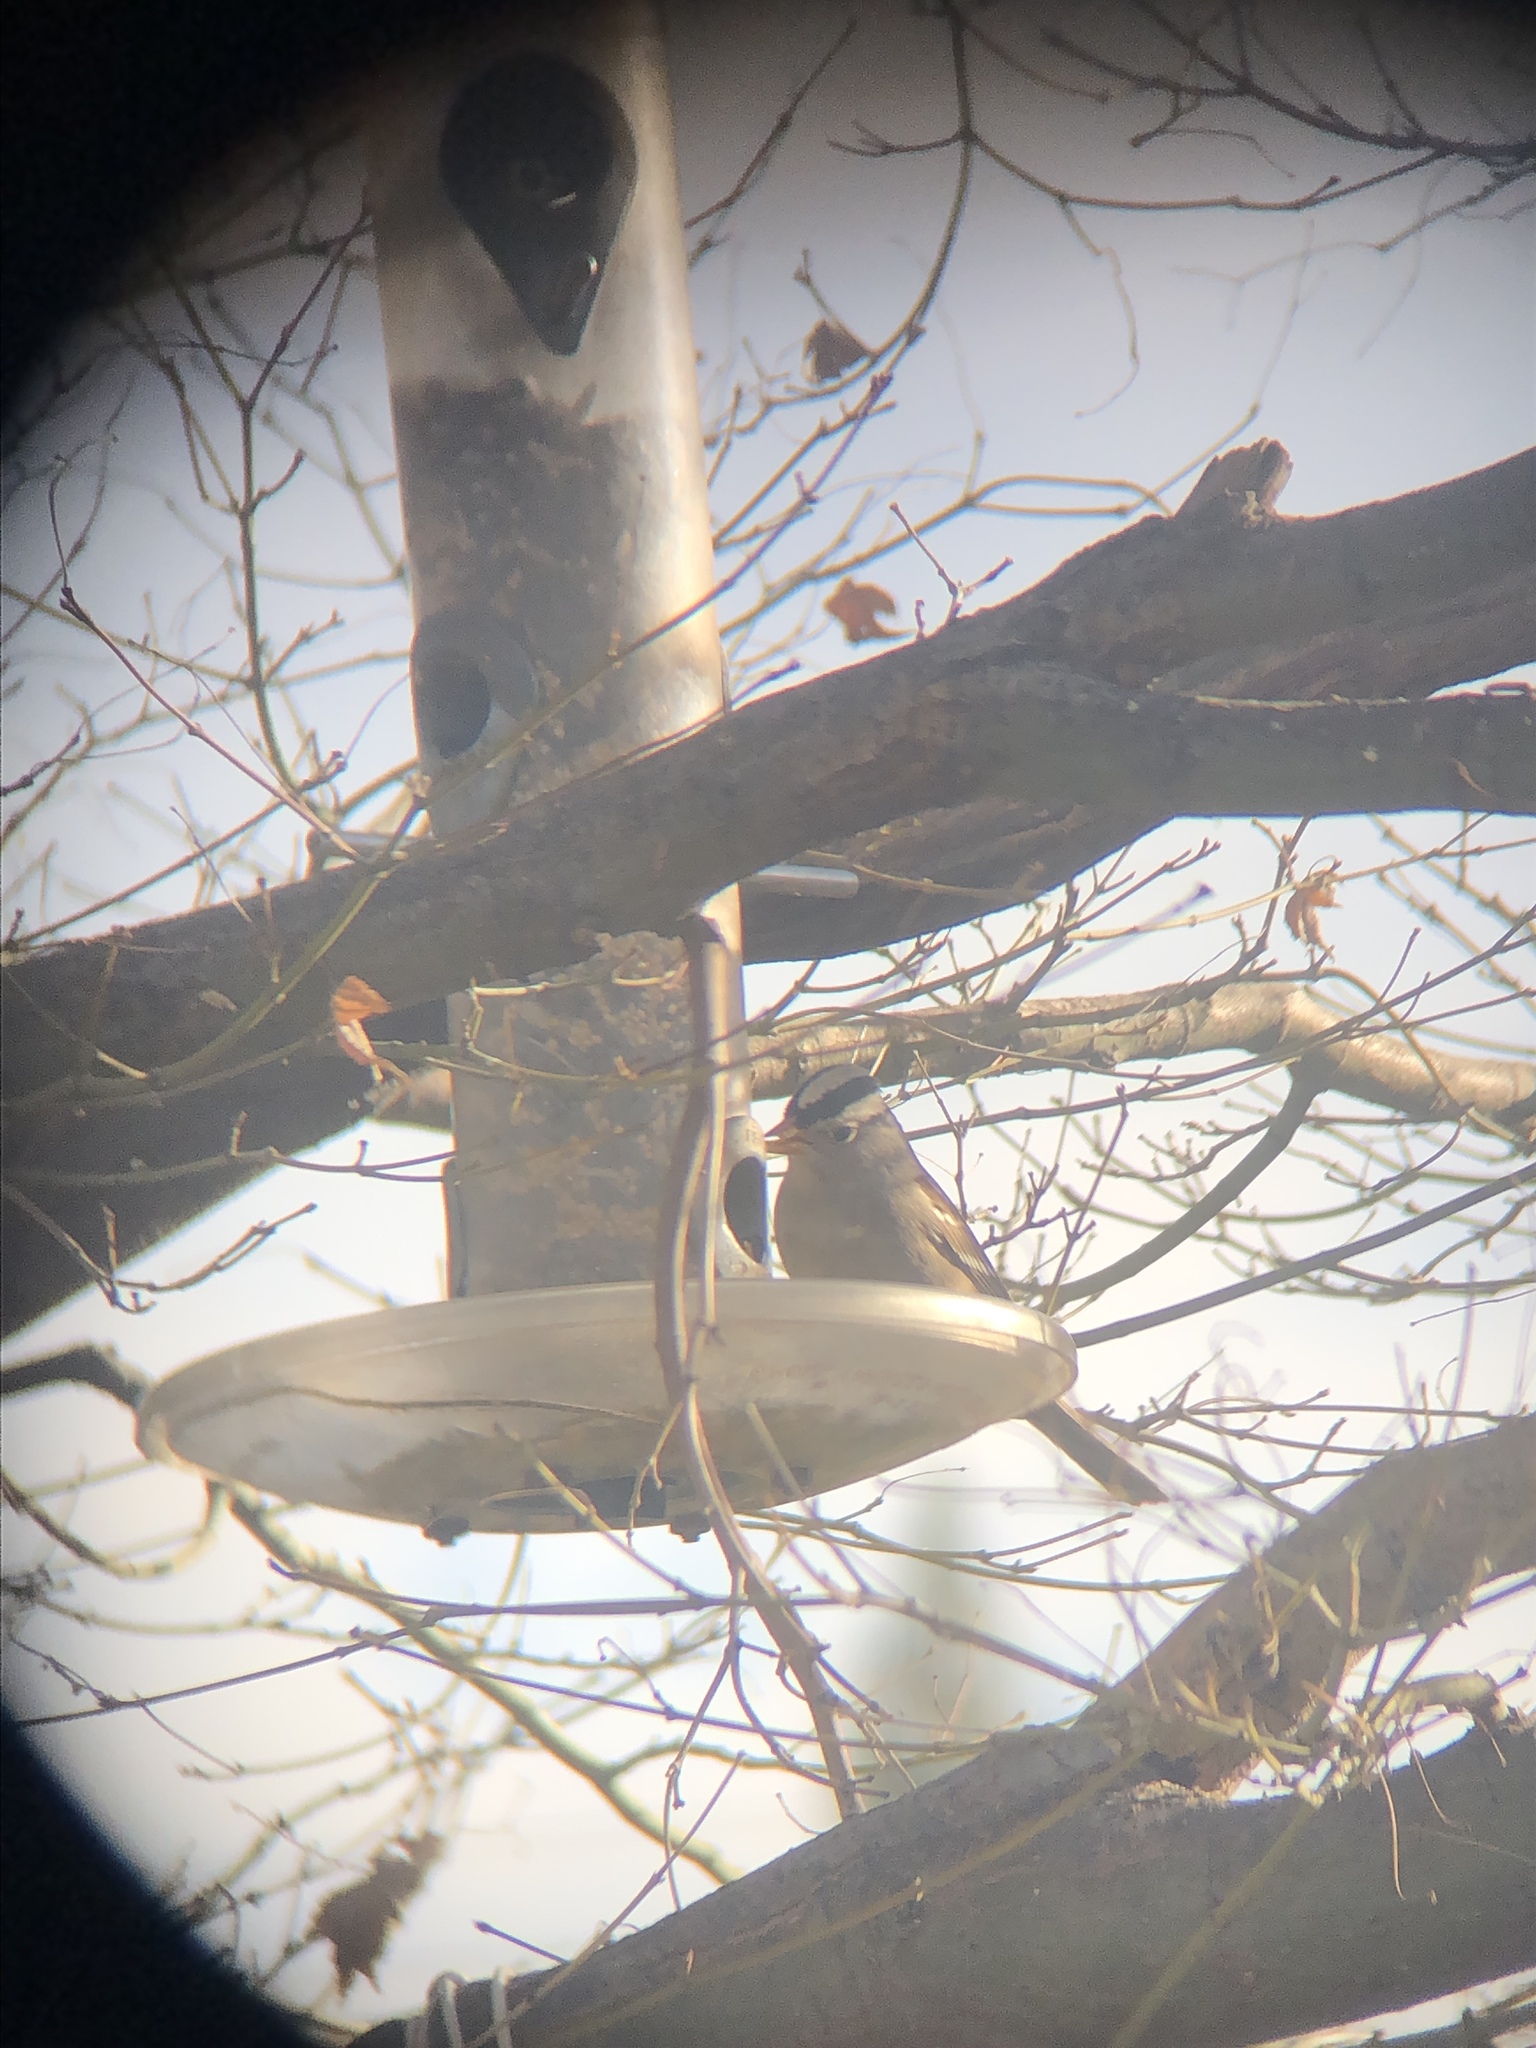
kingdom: Animalia
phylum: Chordata
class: Aves
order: Passeriformes
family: Passerellidae
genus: Zonotrichia
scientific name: Zonotrichia leucophrys
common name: White-crowned sparrow
